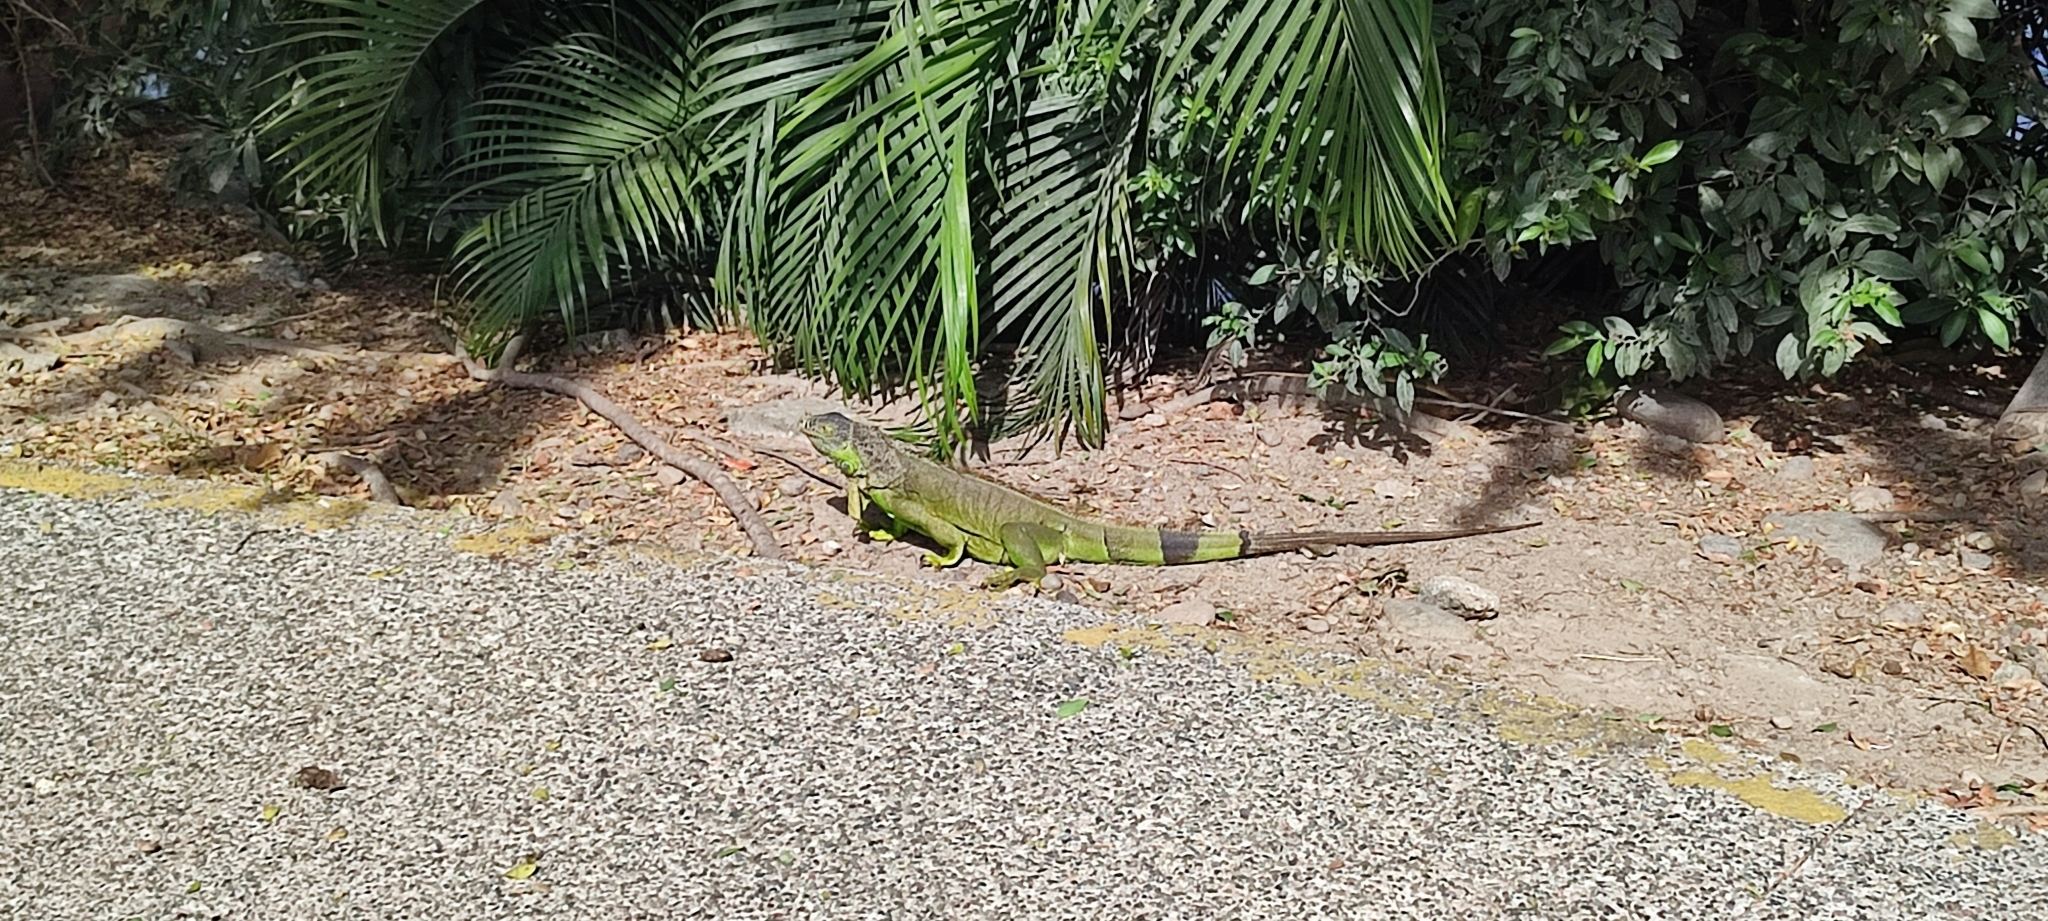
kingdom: Animalia
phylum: Chordata
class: Squamata
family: Iguanidae
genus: Iguana
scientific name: Iguana iguana
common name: Green iguana
